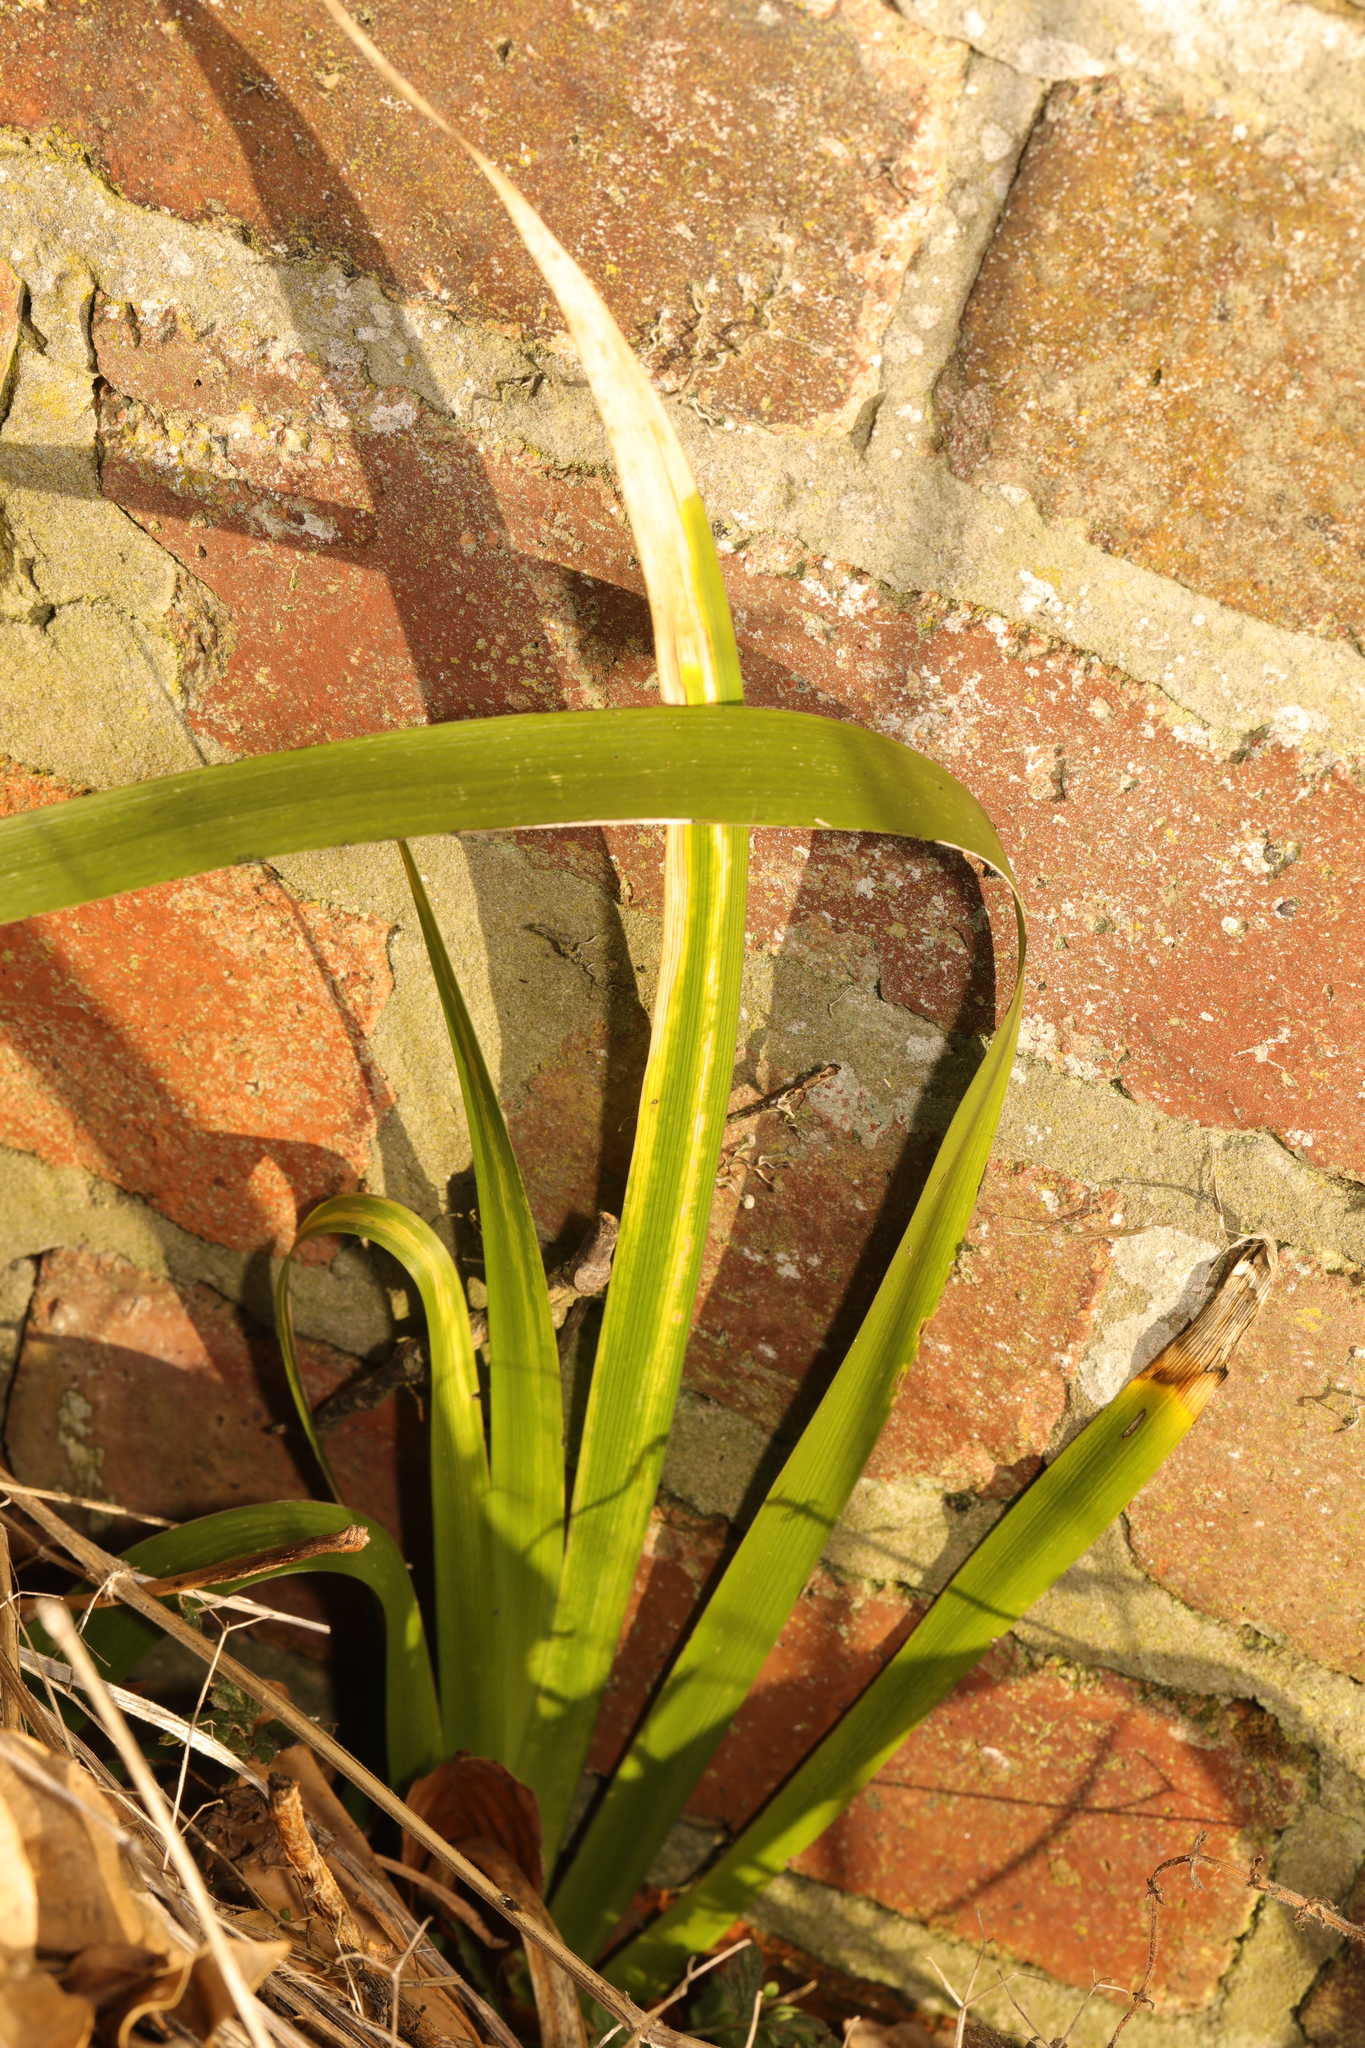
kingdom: Plantae
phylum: Tracheophyta
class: Liliopsida
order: Asparagales
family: Iridaceae
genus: Iris
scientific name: Iris foetidissima
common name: Stinking iris
